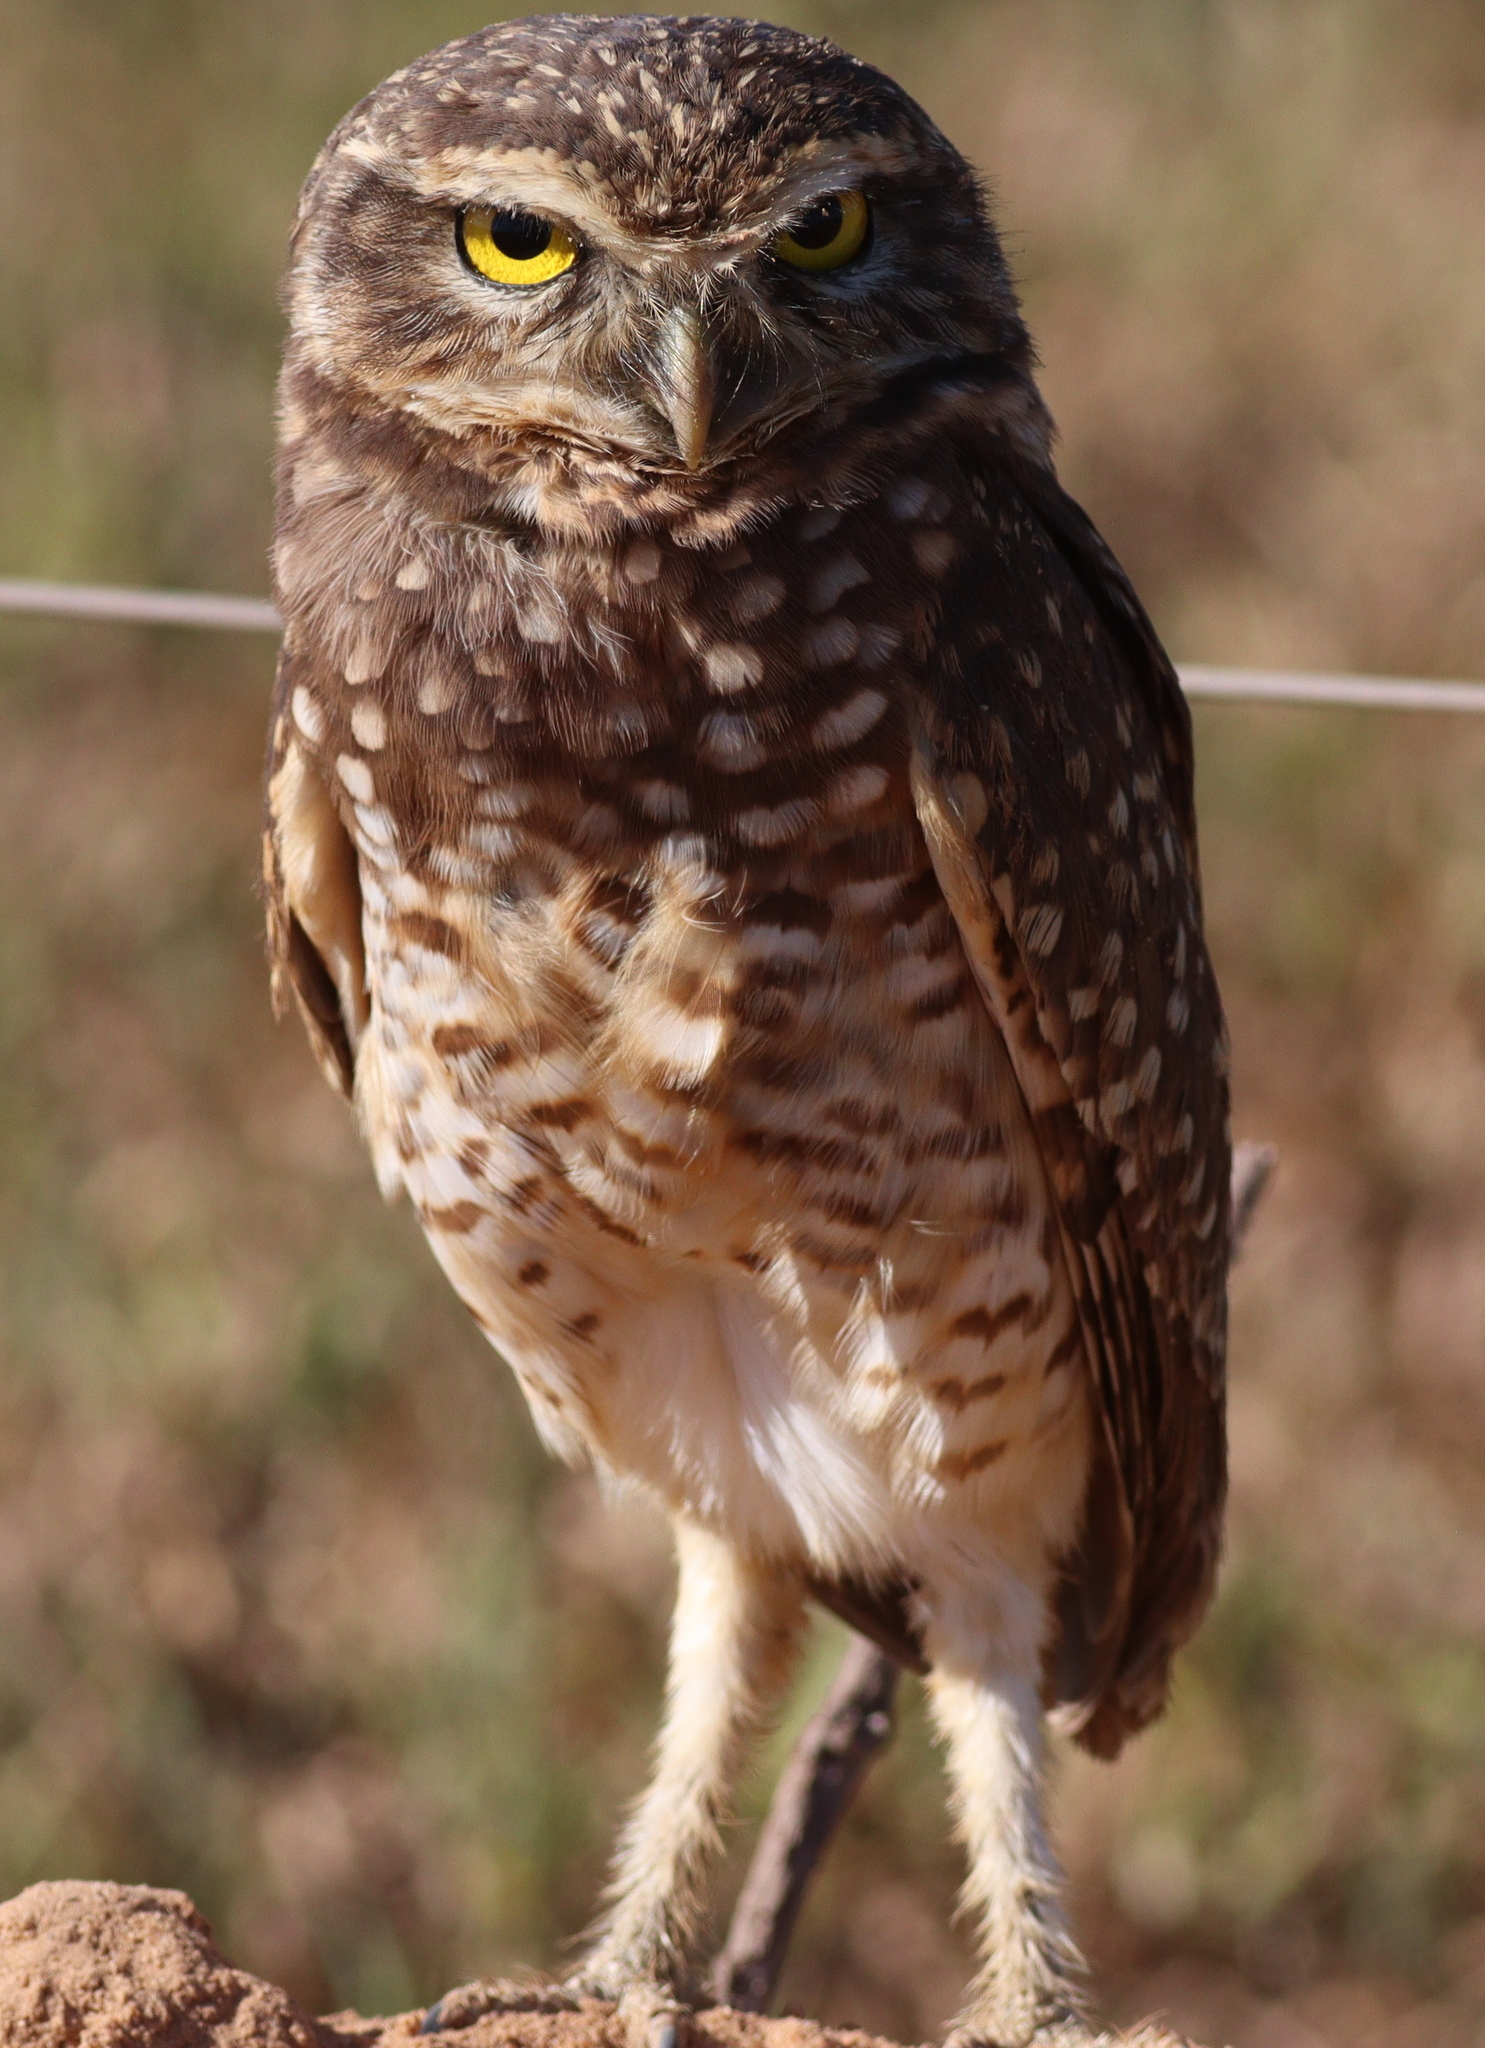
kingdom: Animalia
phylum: Chordata
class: Aves
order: Strigiformes
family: Strigidae
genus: Athene
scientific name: Athene cunicularia
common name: Burrowing owl
